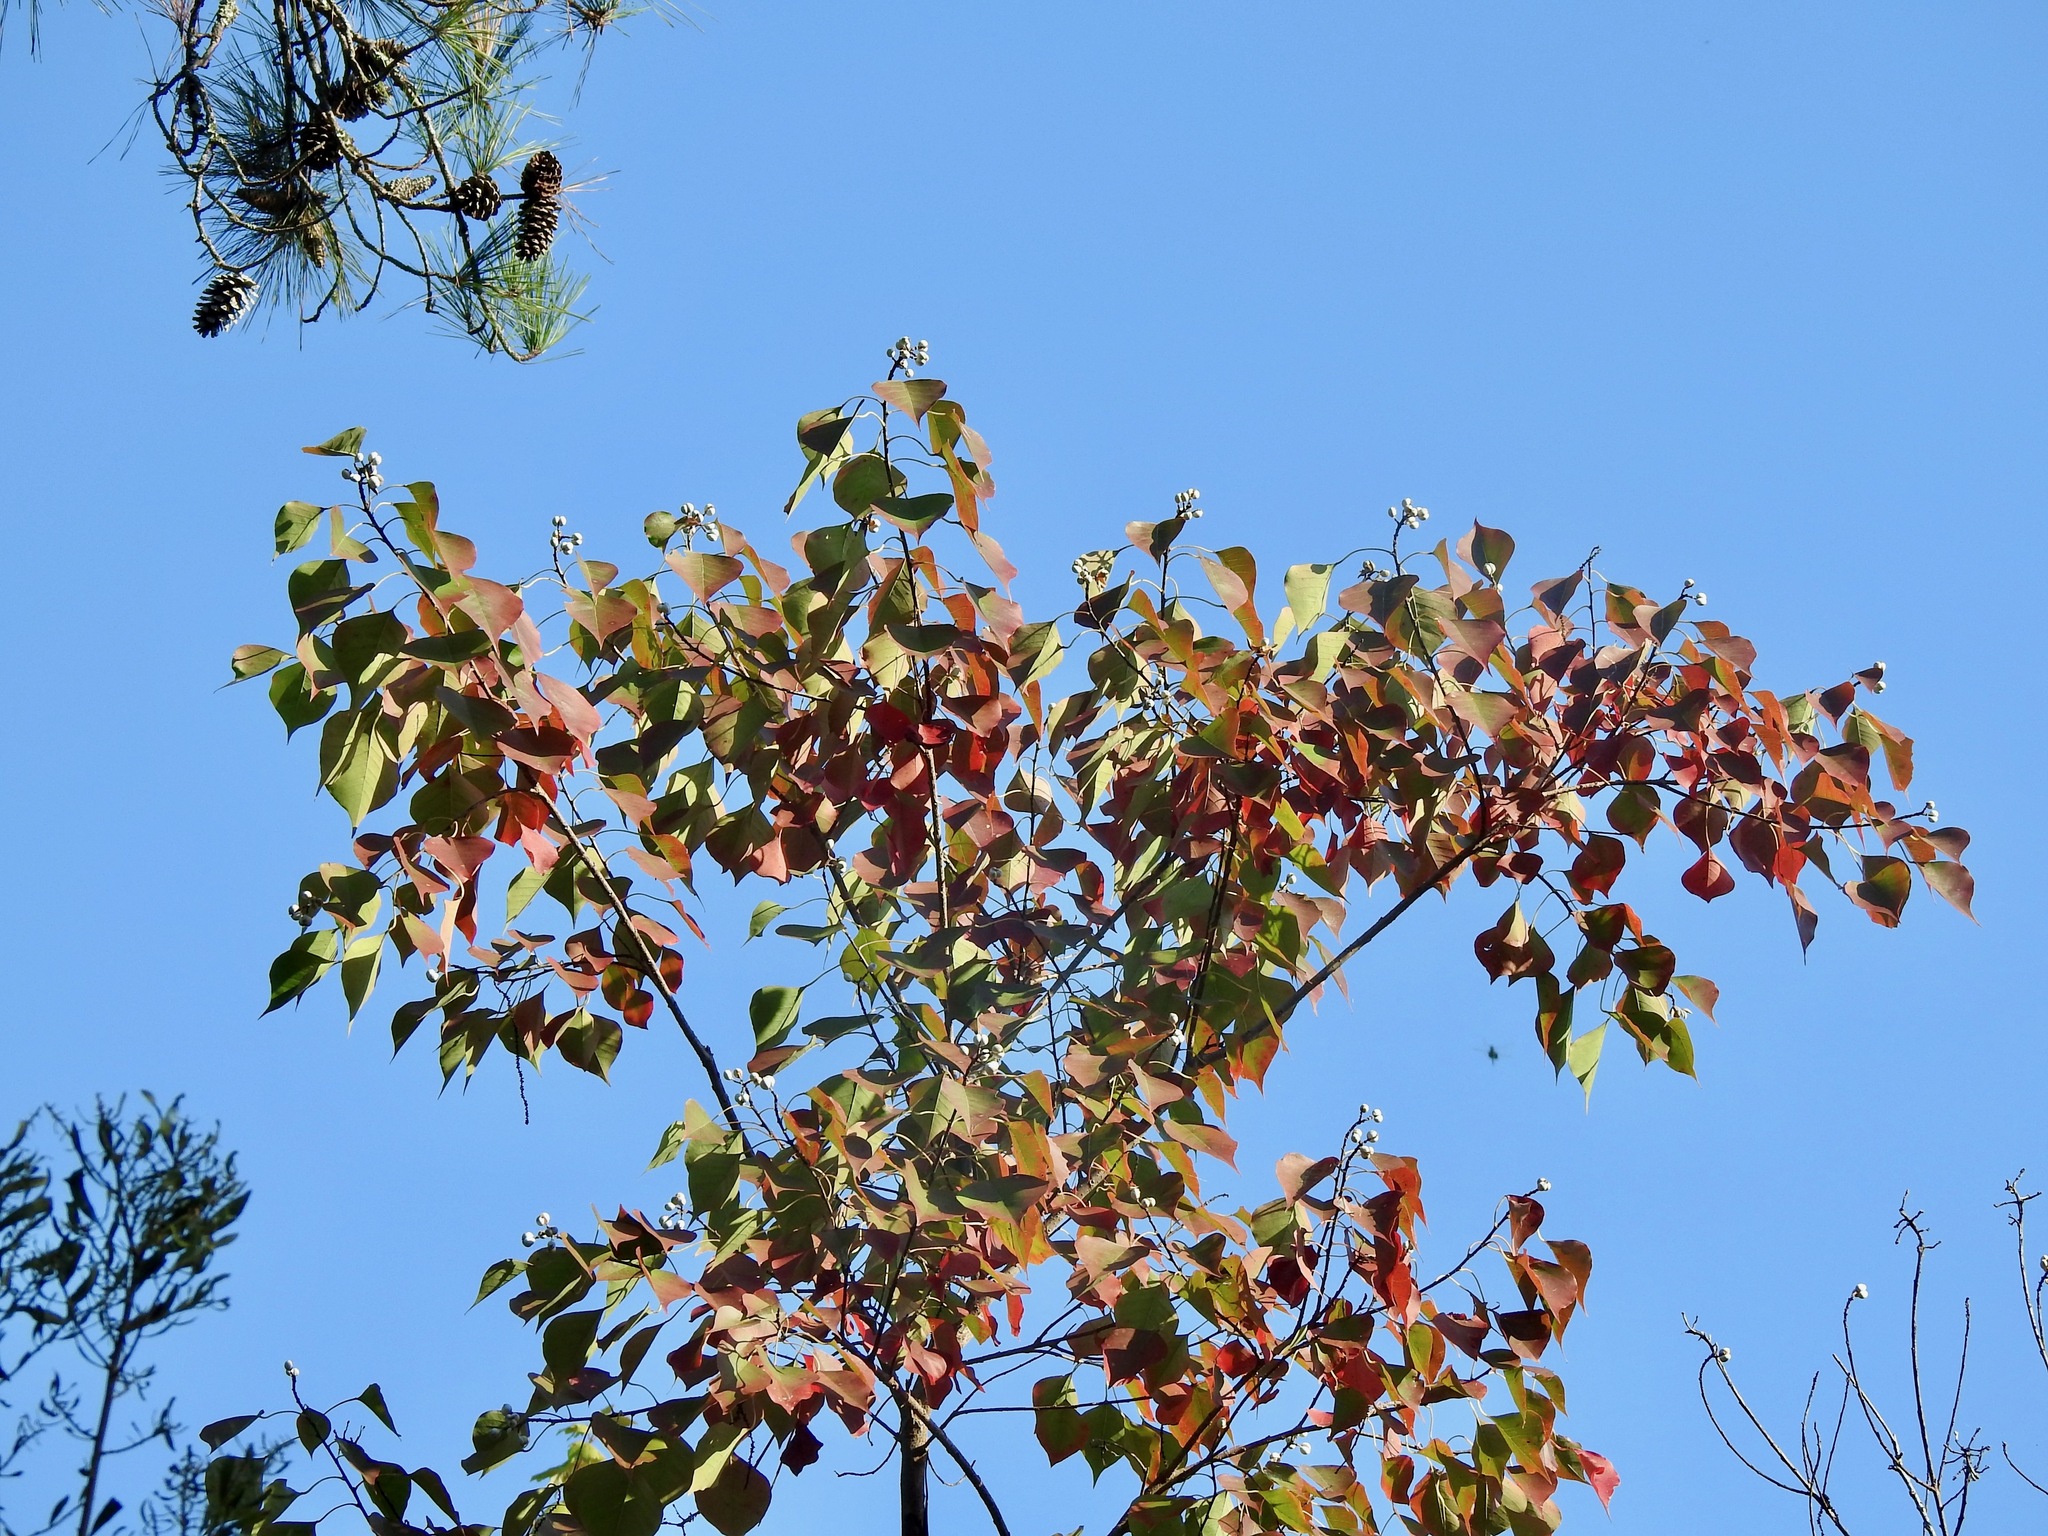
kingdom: Plantae
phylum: Tracheophyta
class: Magnoliopsida
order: Malpighiales
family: Euphorbiaceae
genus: Triadica
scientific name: Triadica sebifera
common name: Chinese tallow
